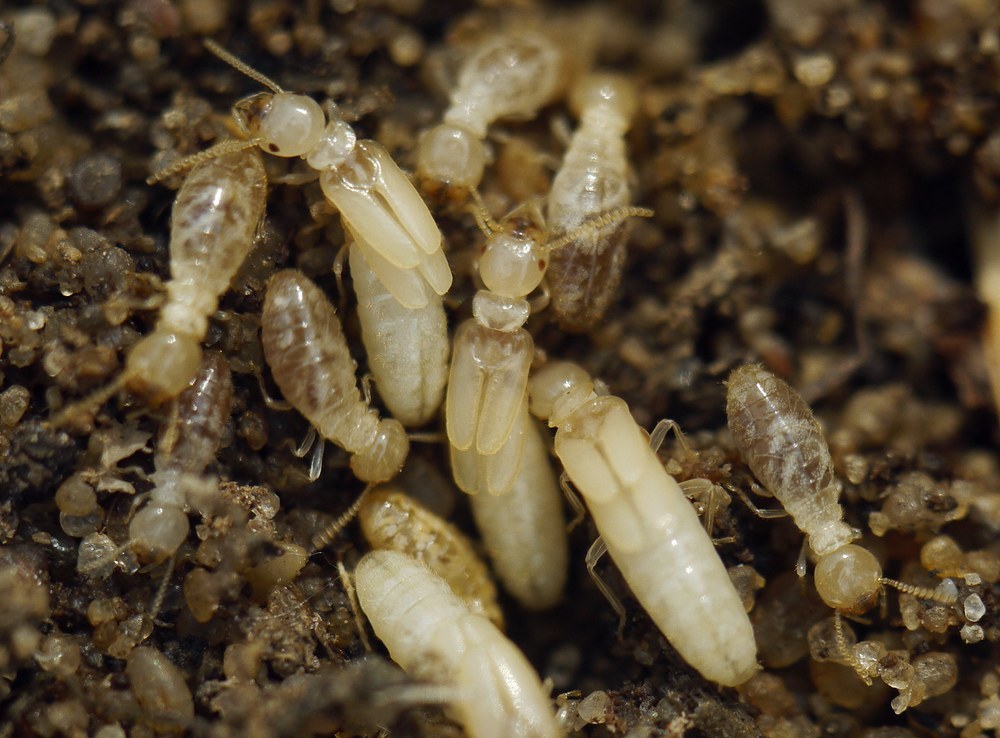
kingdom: Animalia
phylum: Arthropoda
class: Insecta
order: Blattodea
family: Rhinotermitidae
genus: Reticulitermes
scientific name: Reticulitermes lucifugus
